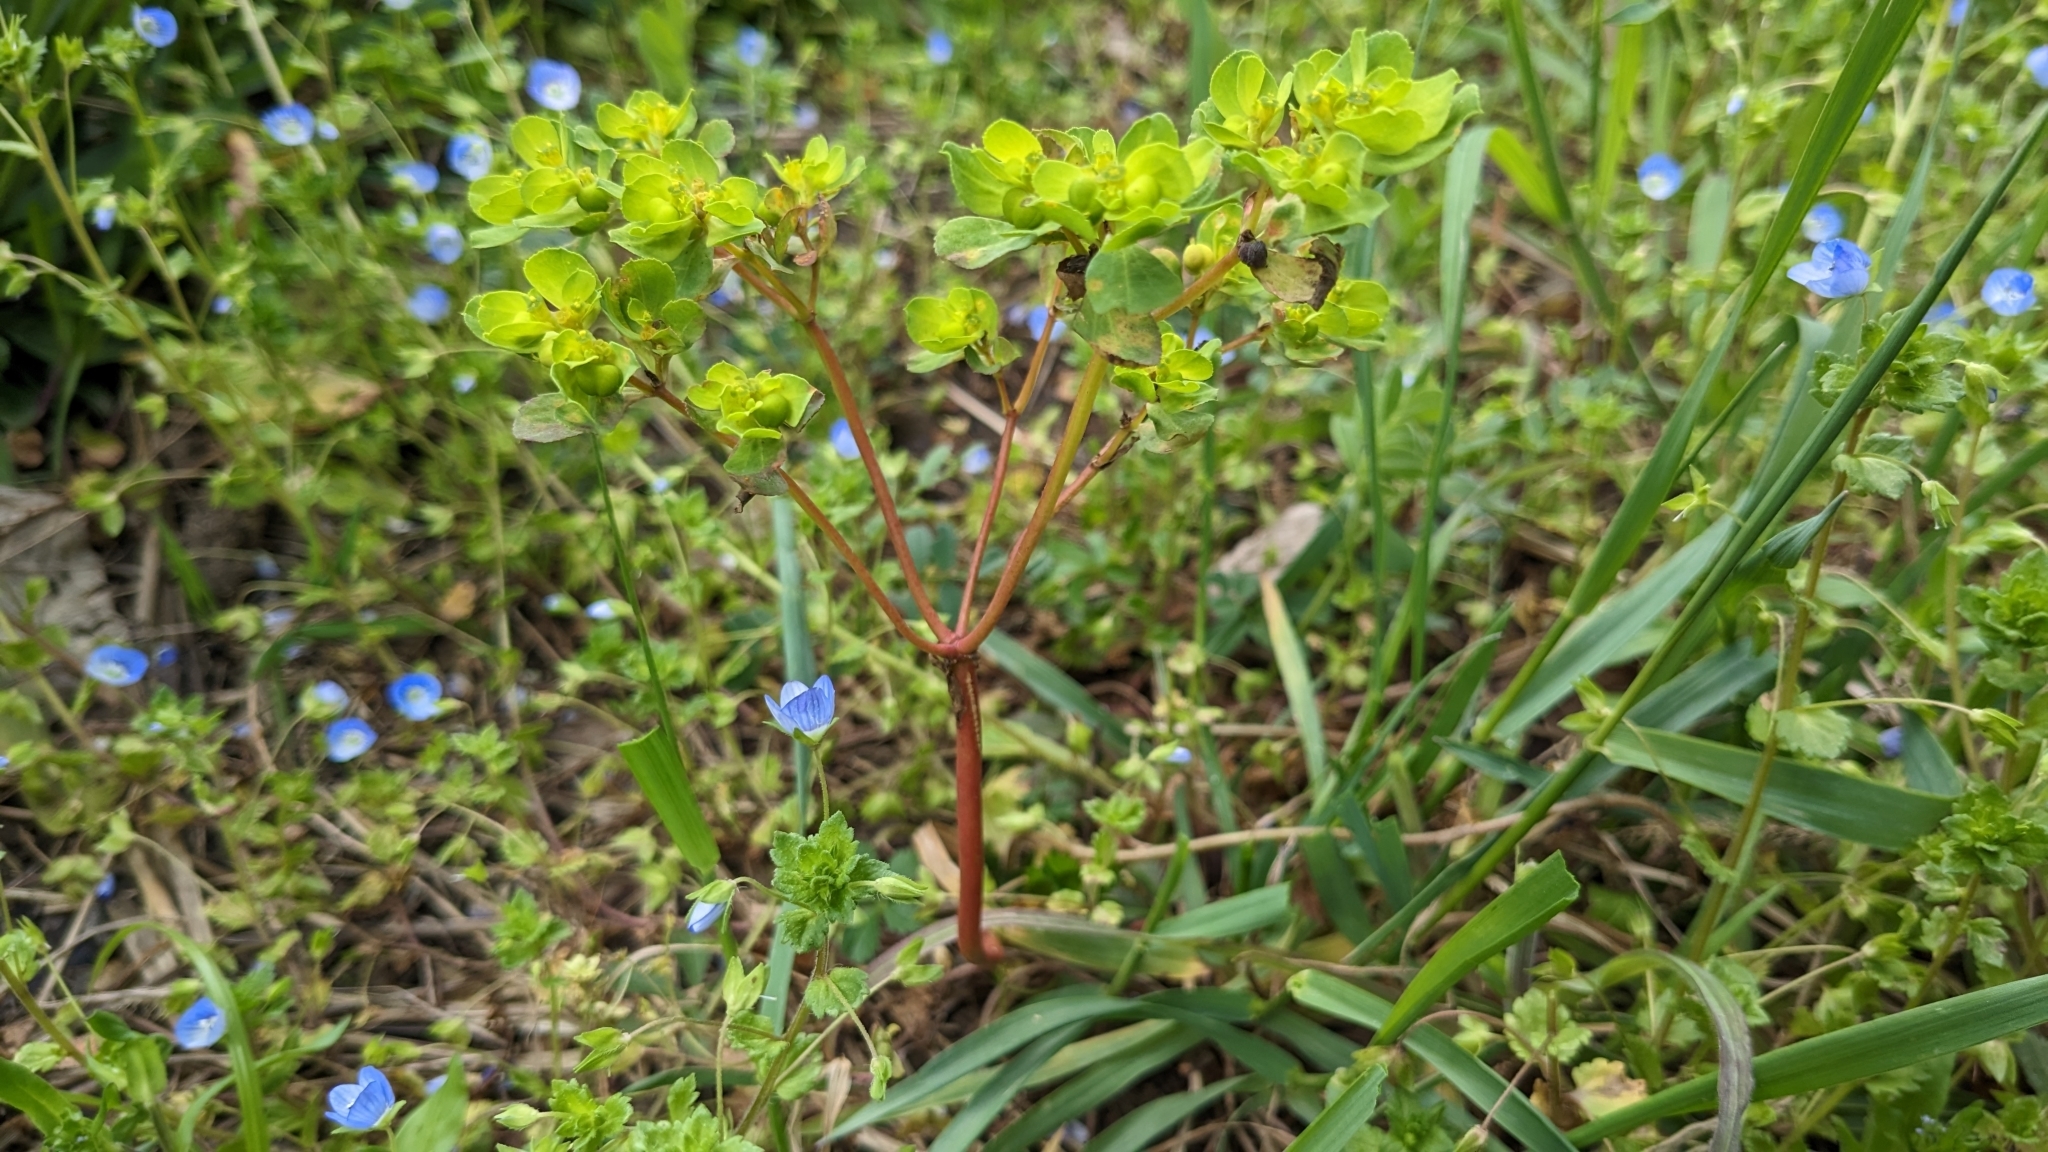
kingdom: Plantae
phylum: Tracheophyta
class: Magnoliopsida
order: Malpighiales
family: Euphorbiaceae
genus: Euphorbia
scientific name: Euphorbia helioscopia
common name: Sun spurge
